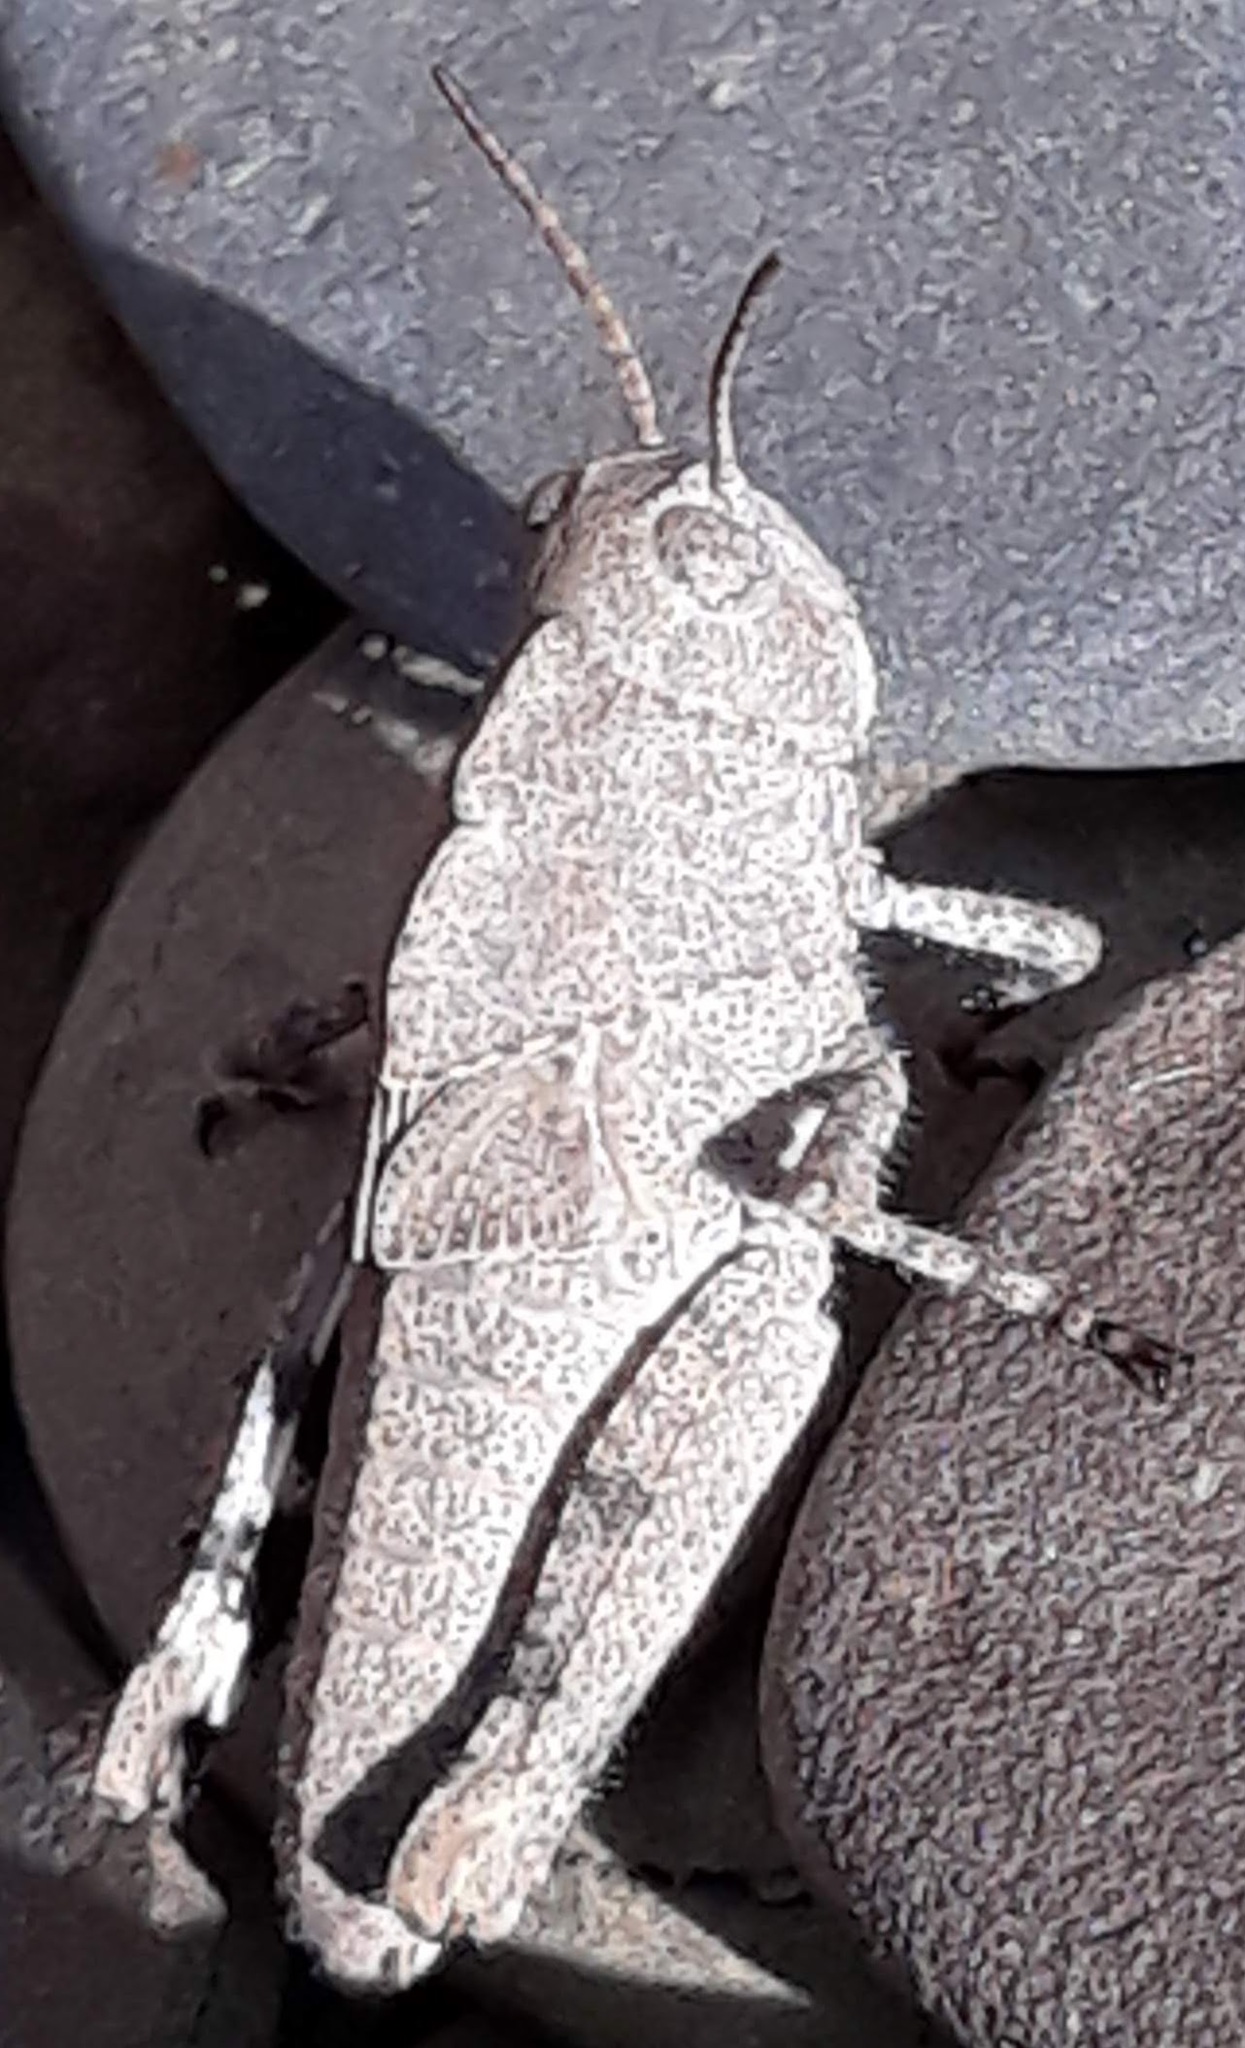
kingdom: Animalia
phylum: Arthropoda
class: Insecta
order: Orthoptera
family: Acrididae
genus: Dissosteira
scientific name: Dissosteira carolina
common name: Carolina grasshopper
